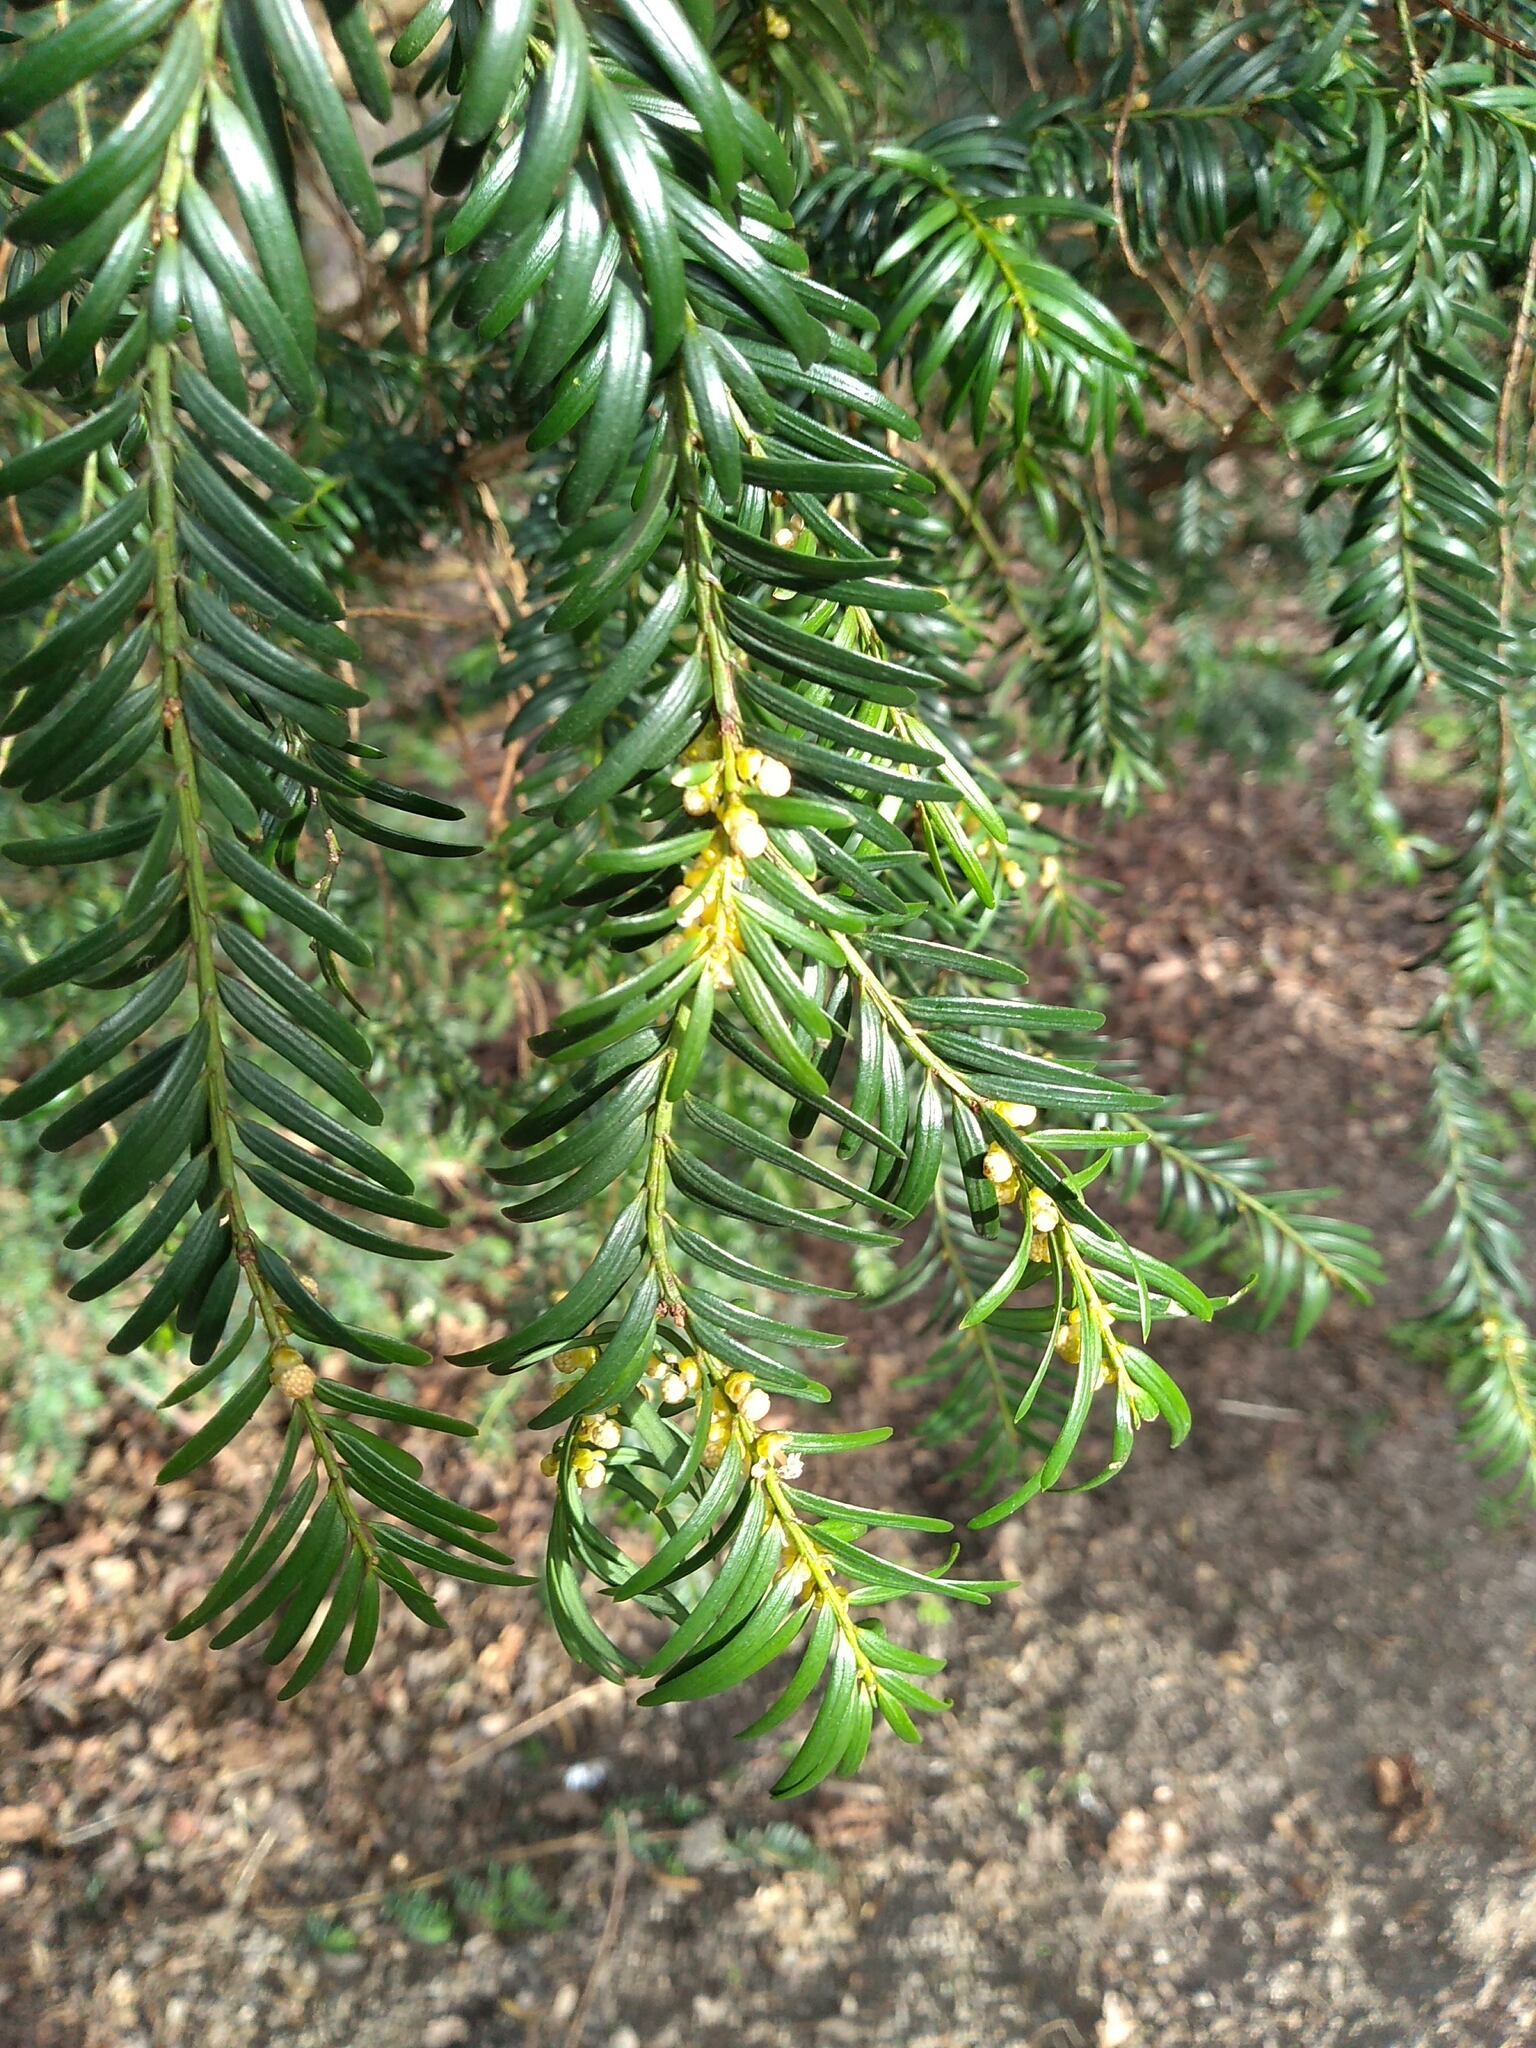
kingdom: Plantae
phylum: Tracheophyta
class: Pinopsida
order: Pinales
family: Taxaceae
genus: Taxus
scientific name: Taxus baccata
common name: Yew
